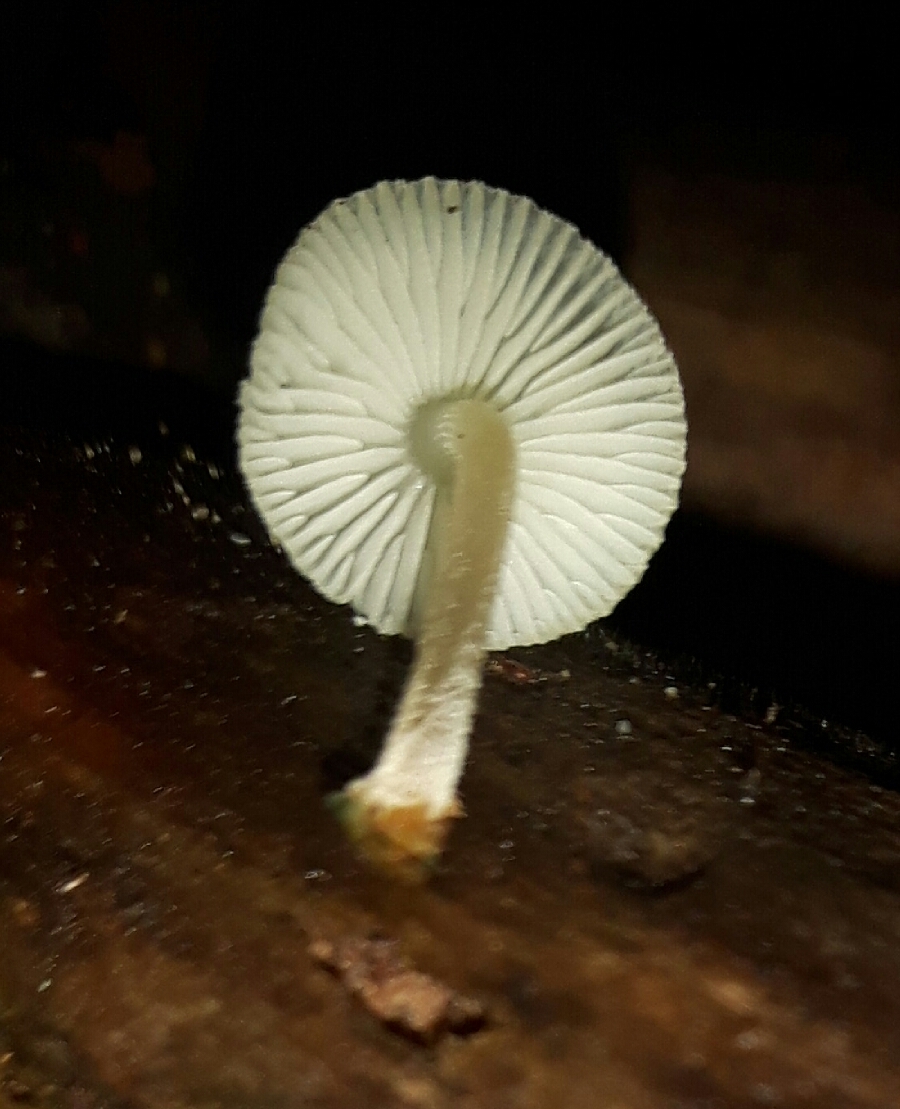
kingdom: Fungi
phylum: Basidiomycota
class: Agaricomycetes
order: Agaricales
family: Mycenaceae
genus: Mycena
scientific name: Mycena interrupta
